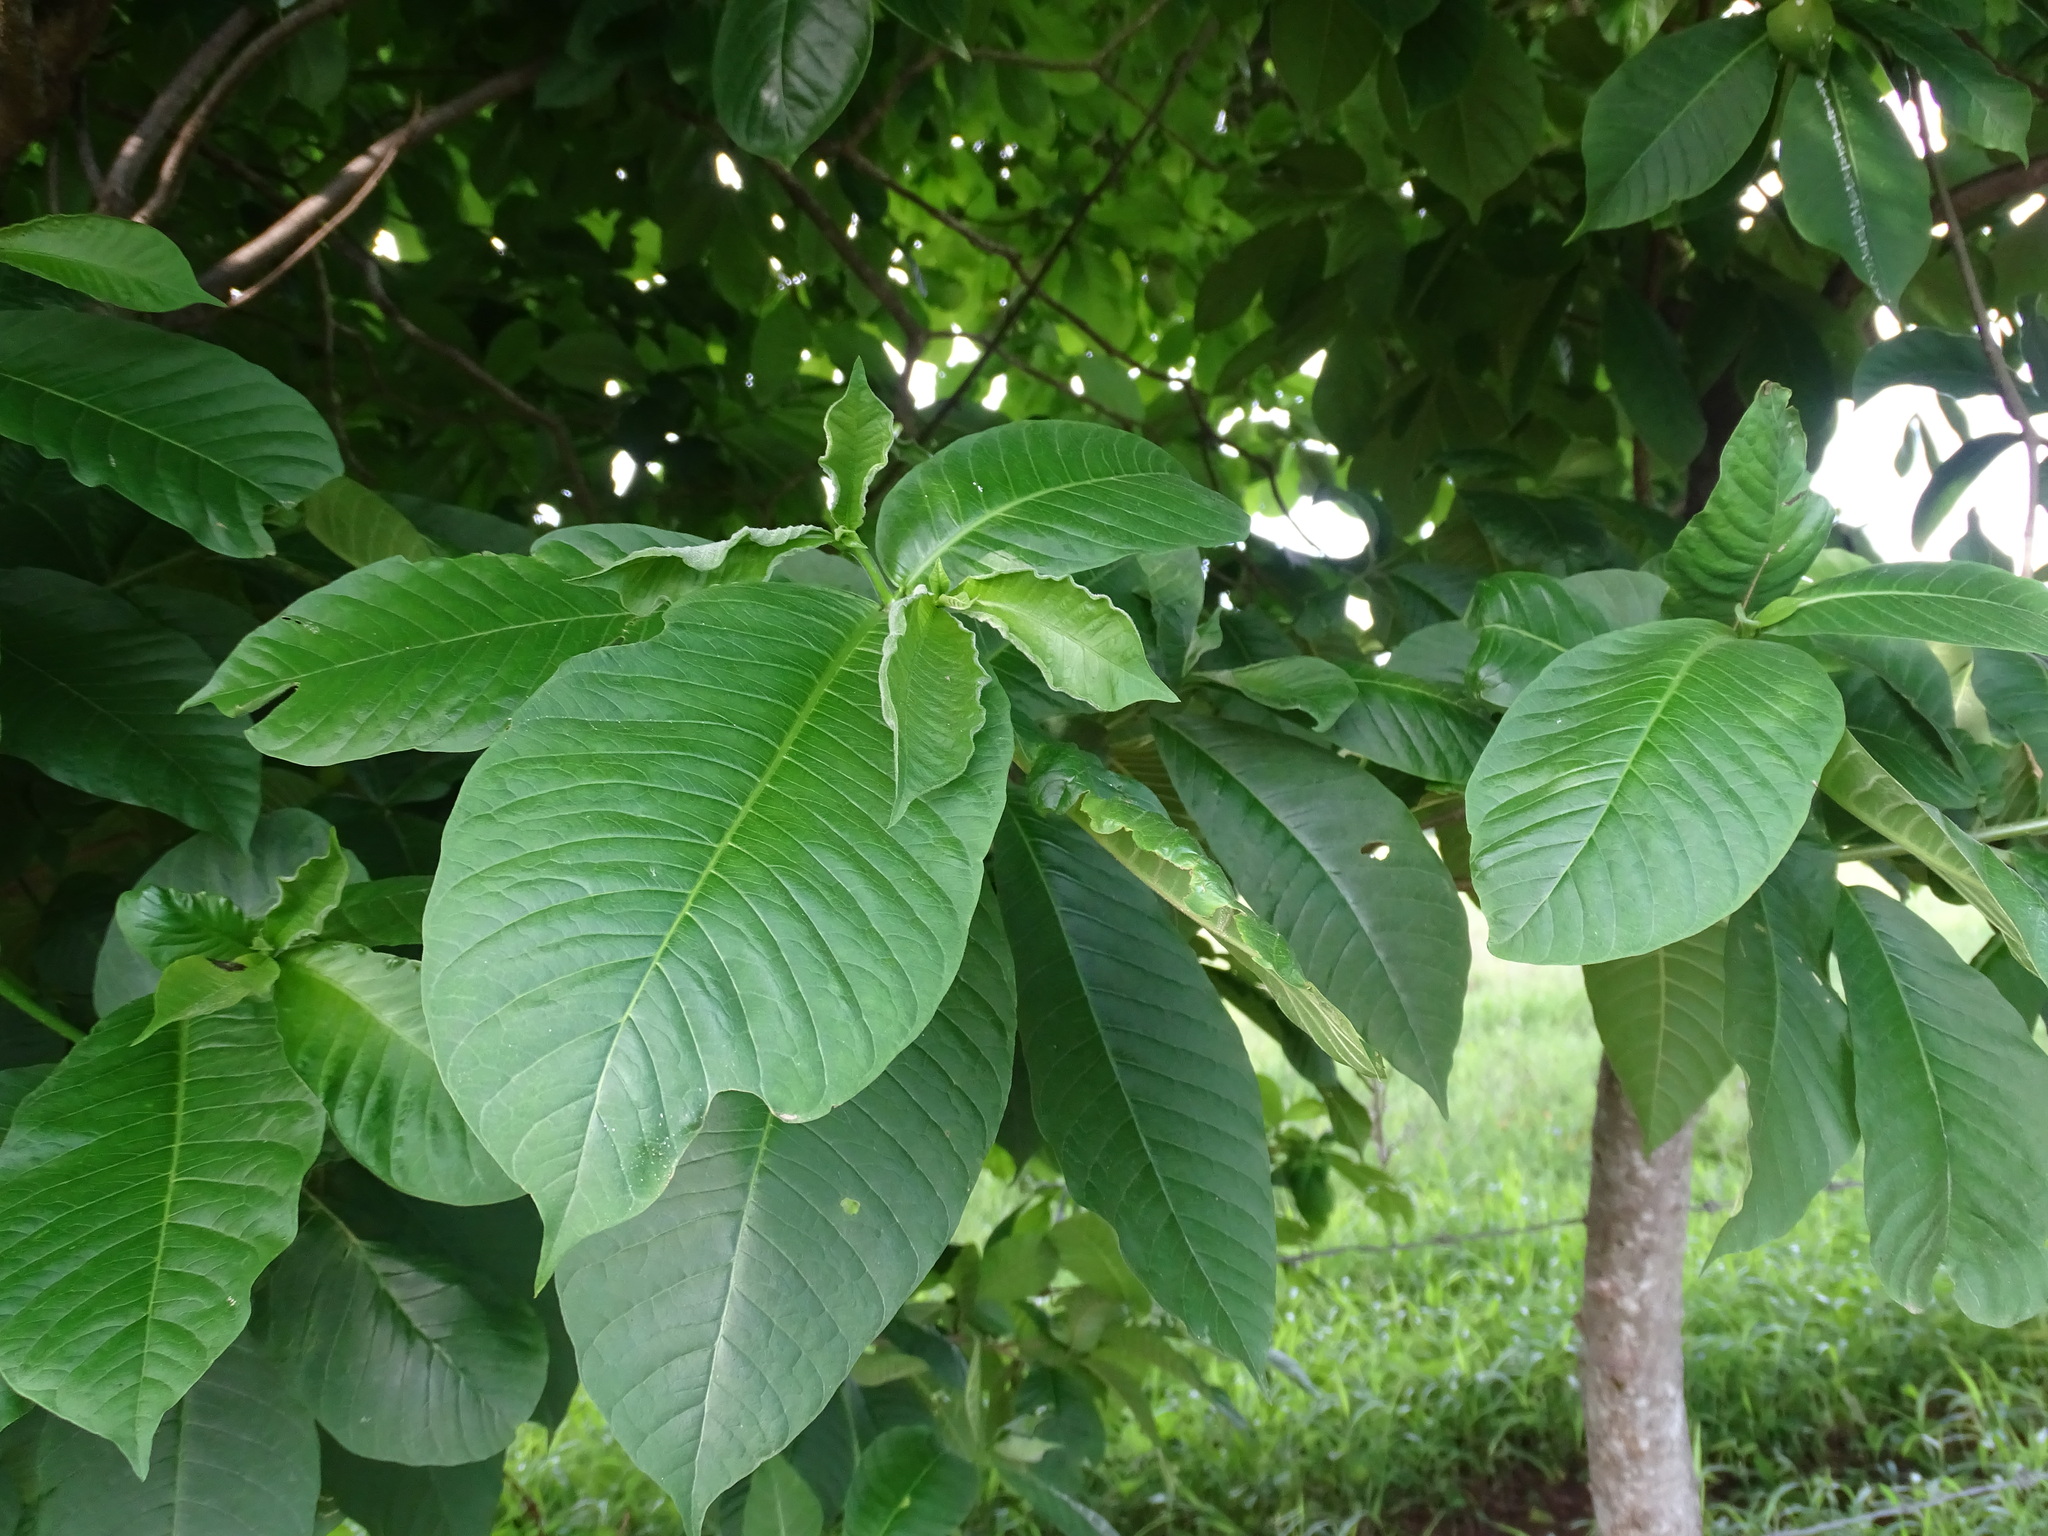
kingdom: Plantae
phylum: Tracheophyta
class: Magnoliopsida
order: Gentianales
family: Rubiaceae
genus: Genipa
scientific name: Genipa americana
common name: Genipap
